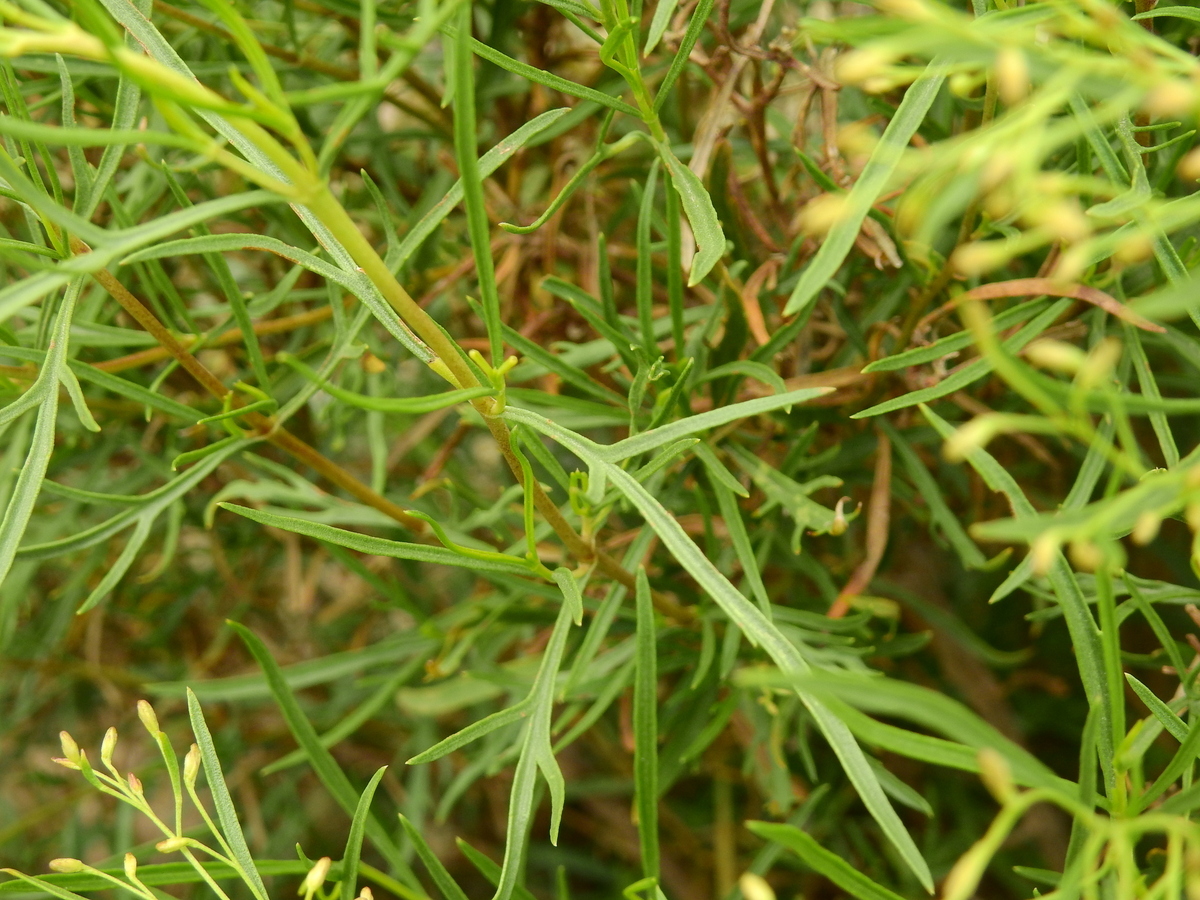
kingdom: Plantae
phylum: Tracheophyta
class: Magnoliopsida
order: Asterales
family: Asteraceae
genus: Acanthostyles
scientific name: Acanthostyles buniifolius
